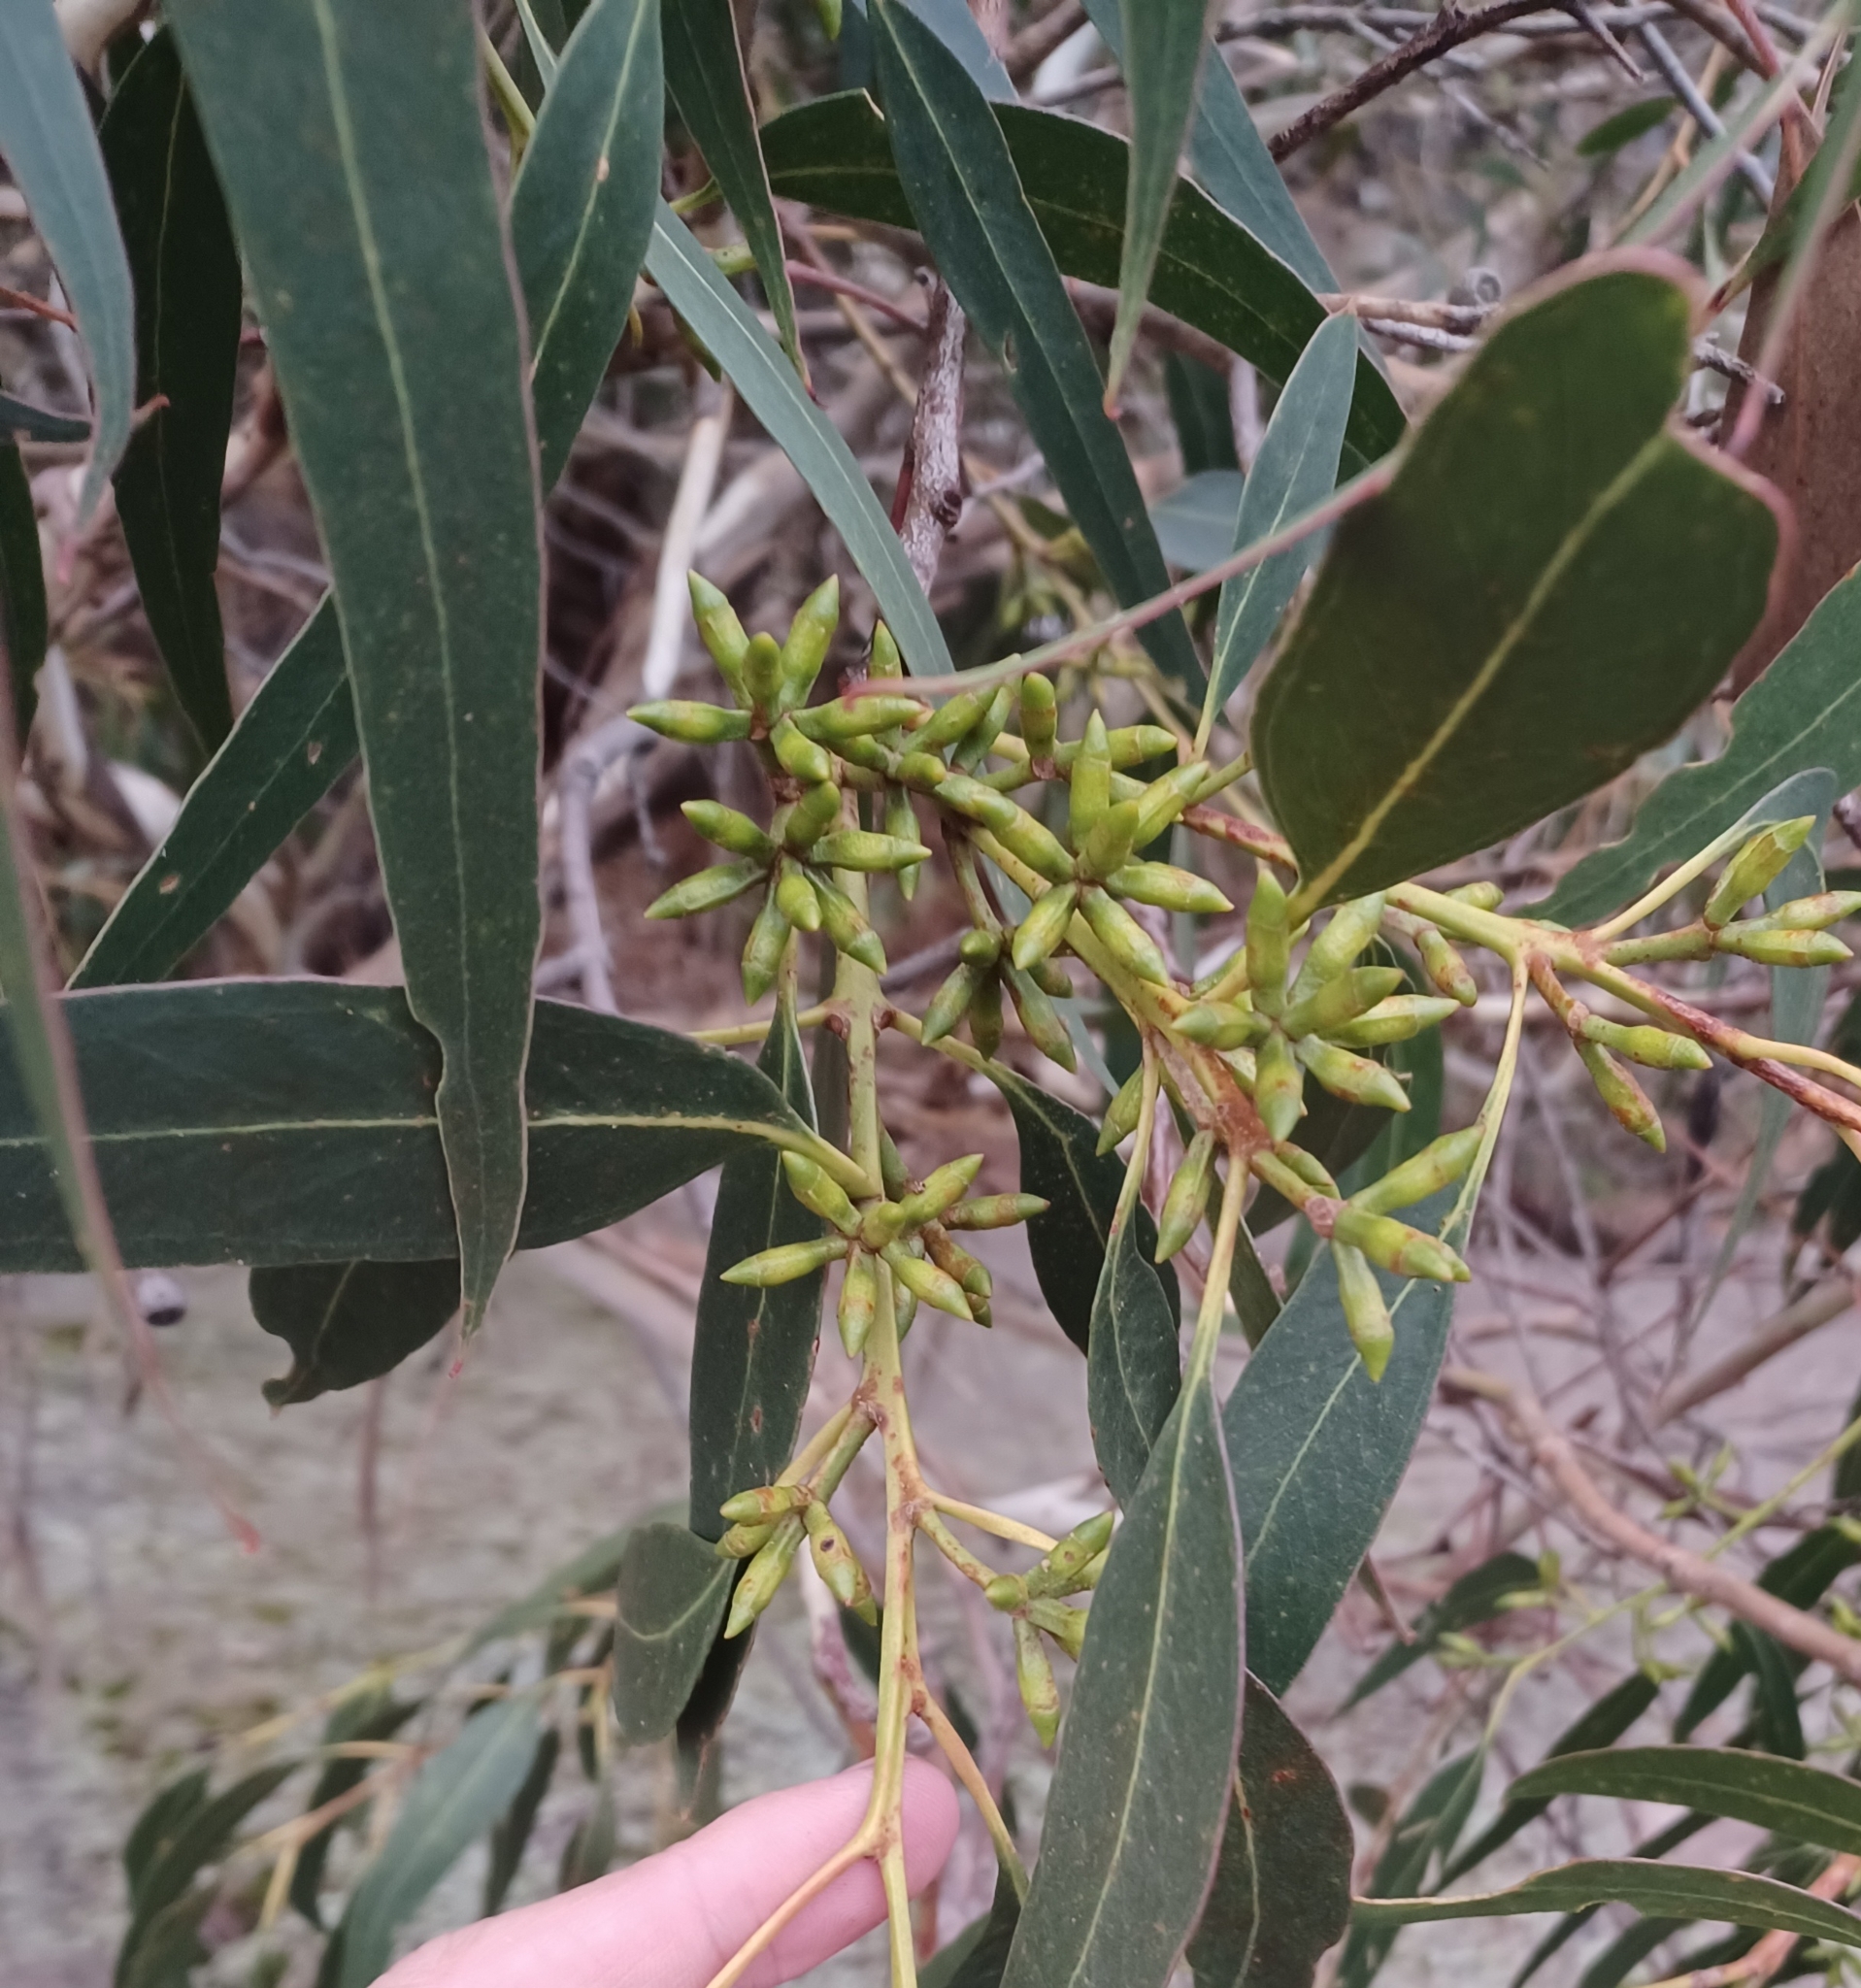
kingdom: Plantae
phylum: Tracheophyta
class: Magnoliopsida
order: Myrtales
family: Myrtaceae
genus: Eucalyptus
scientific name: Eucalyptus cypellocarpa
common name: Mountain grey gum
